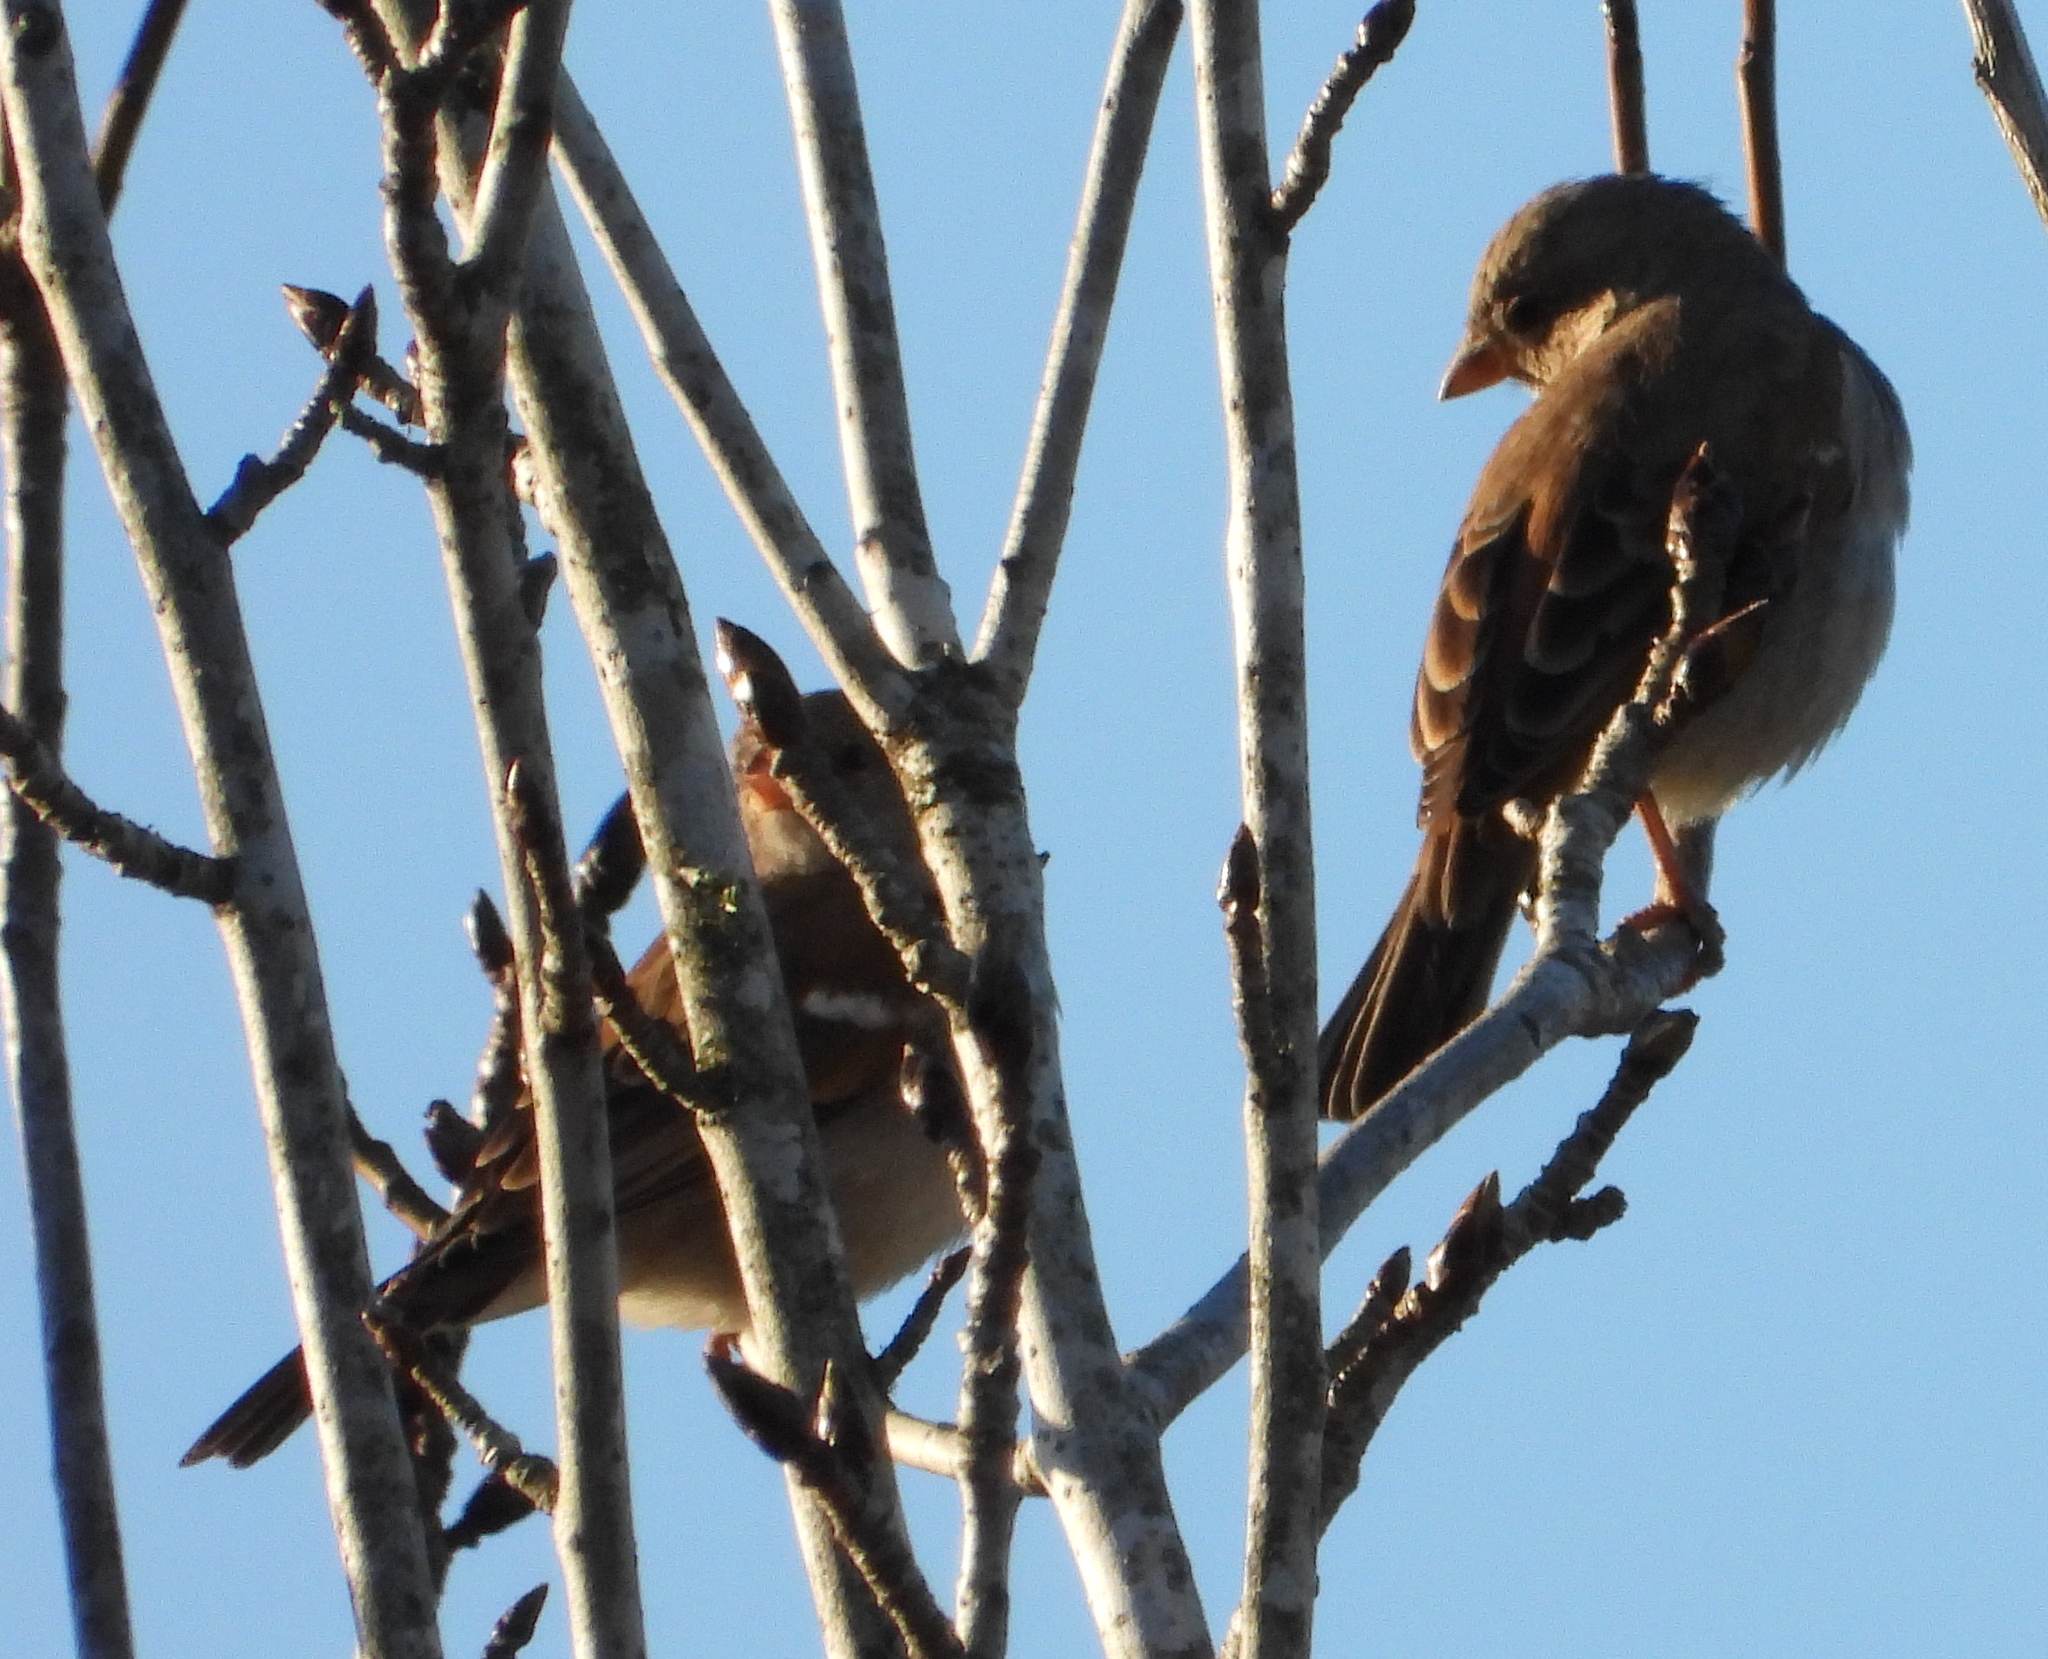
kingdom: Animalia
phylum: Chordata
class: Aves
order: Passeriformes
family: Passeridae
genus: Passer
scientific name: Passer diffusus
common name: Southern grey-headed sparrow
